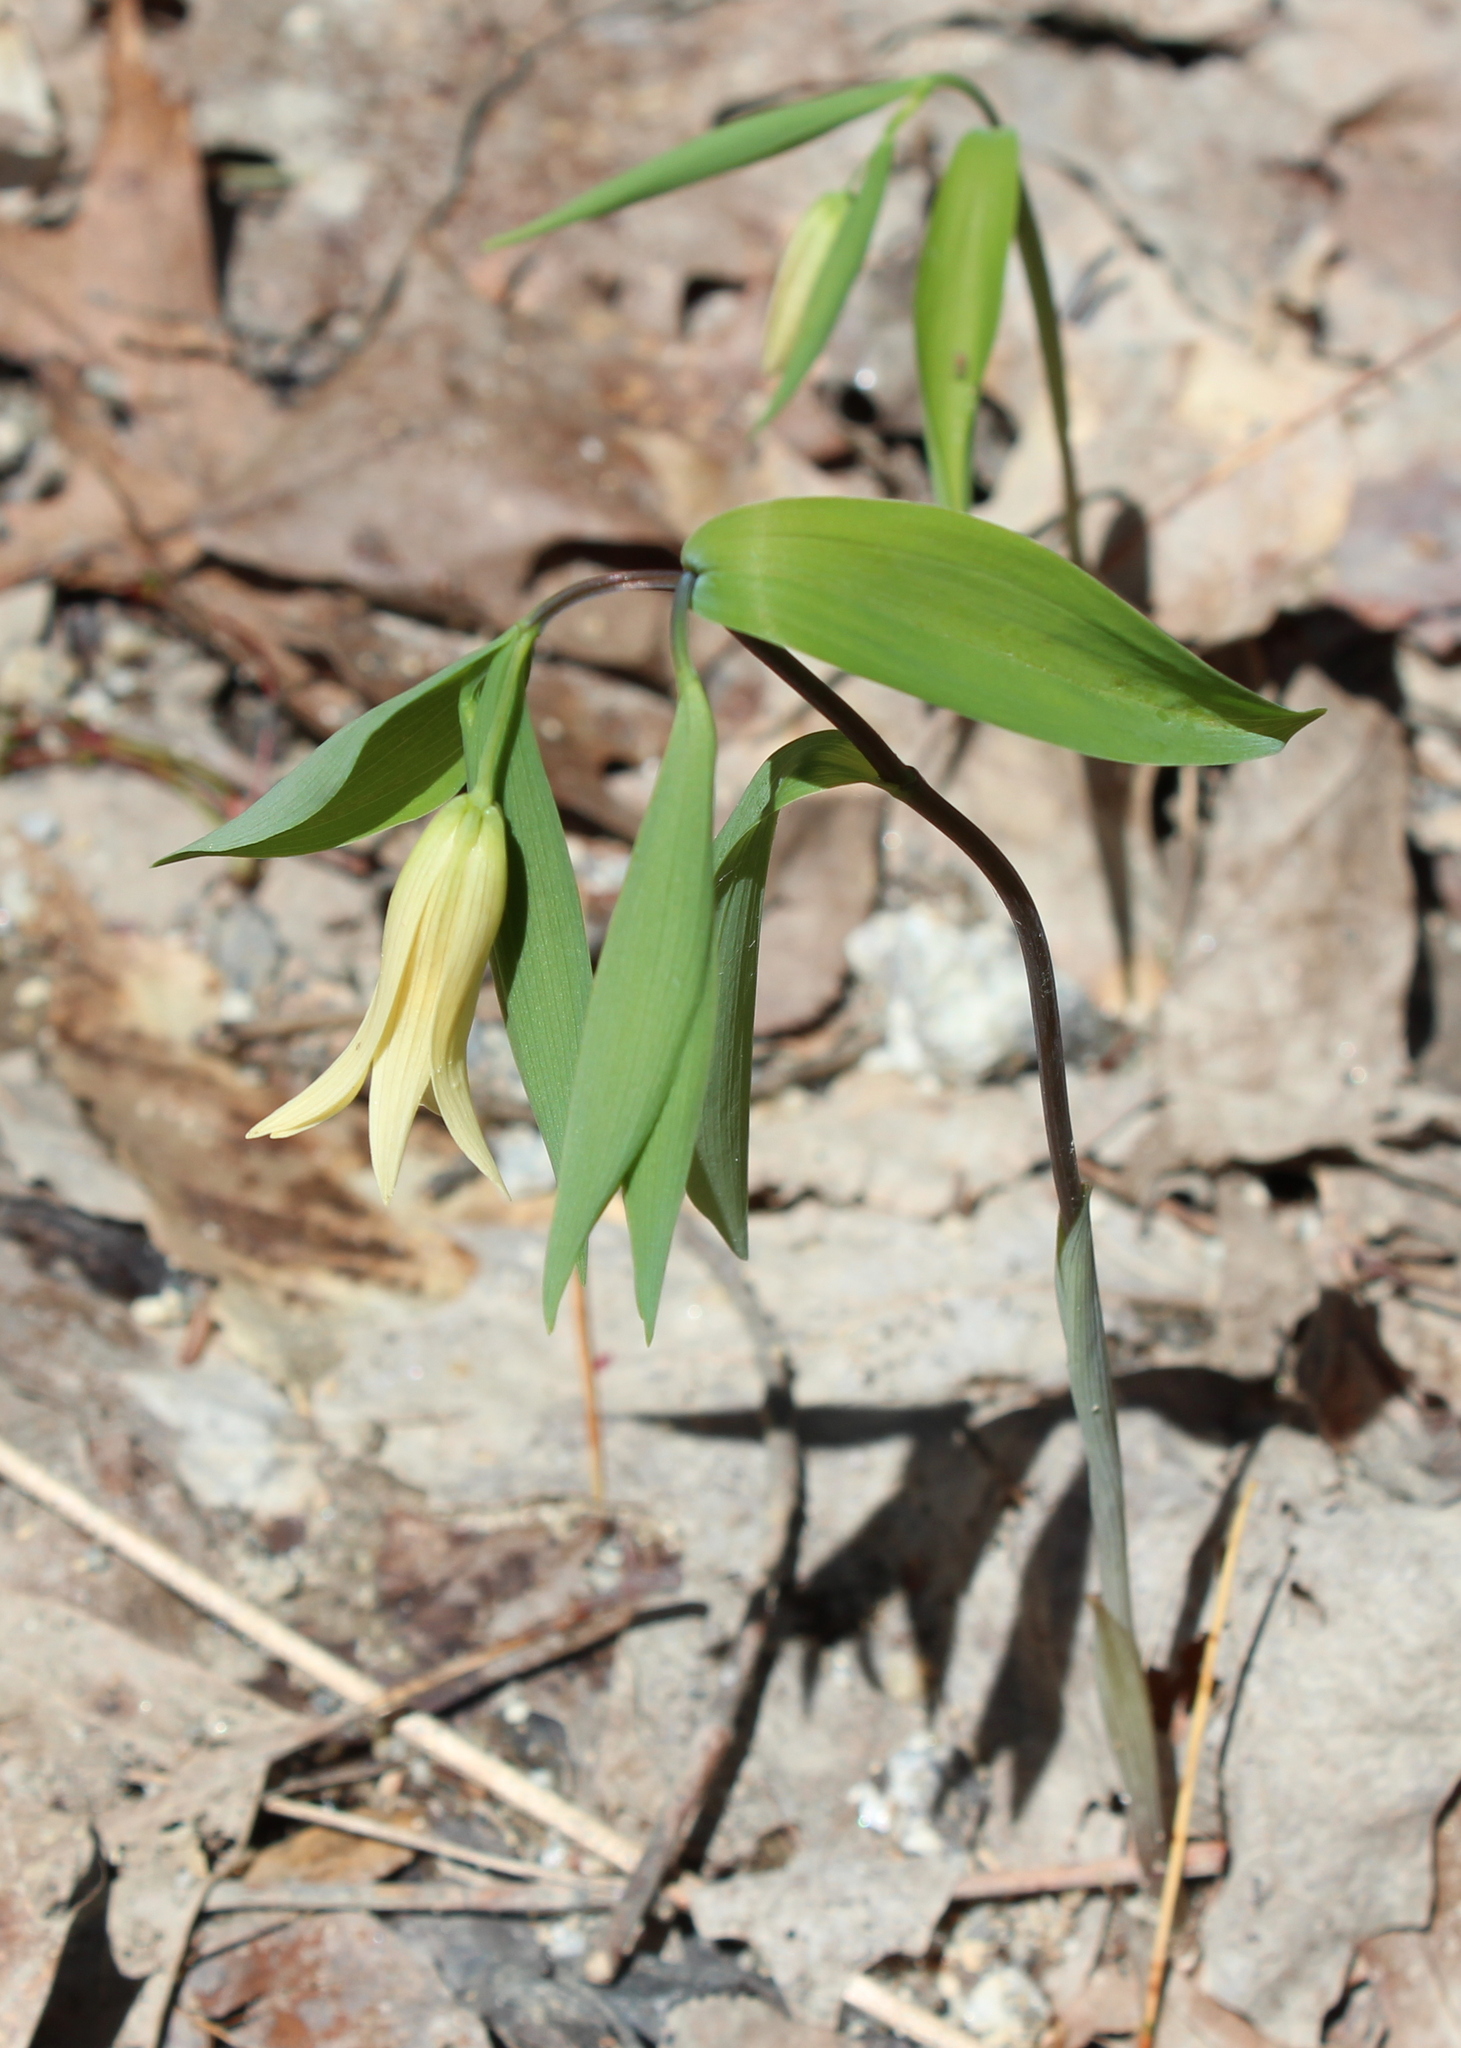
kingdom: Plantae
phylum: Tracheophyta
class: Liliopsida
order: Liliales
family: Colchicaceae
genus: Uvularia
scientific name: Uvularia sessilifolia
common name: Straw-lily
